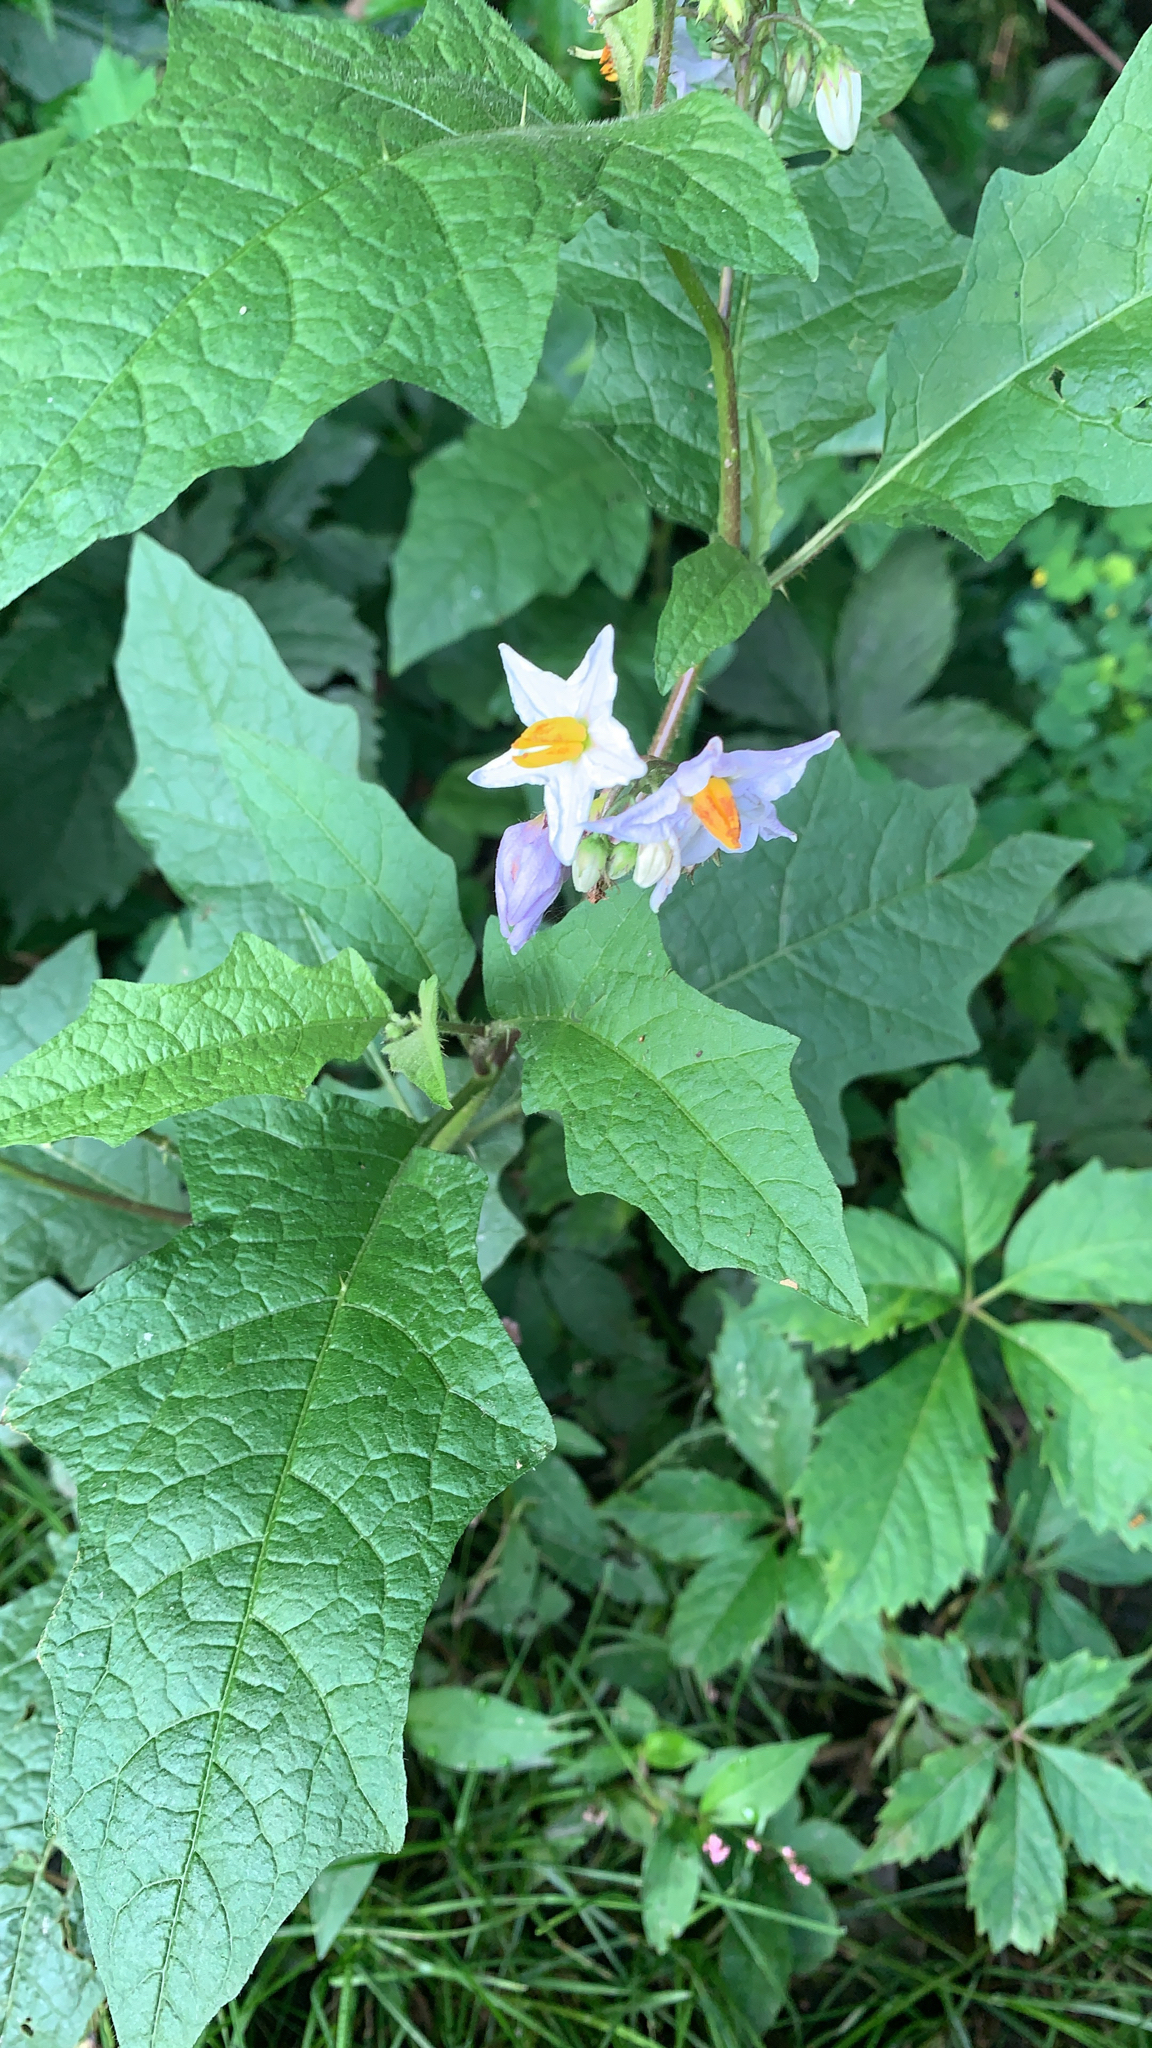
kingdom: Plantae
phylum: Tracheophyta
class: Magnoliopsida
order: Solanales
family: Solanaceae
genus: Solanum
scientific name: Solanum carolinense
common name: Horse-nettle
